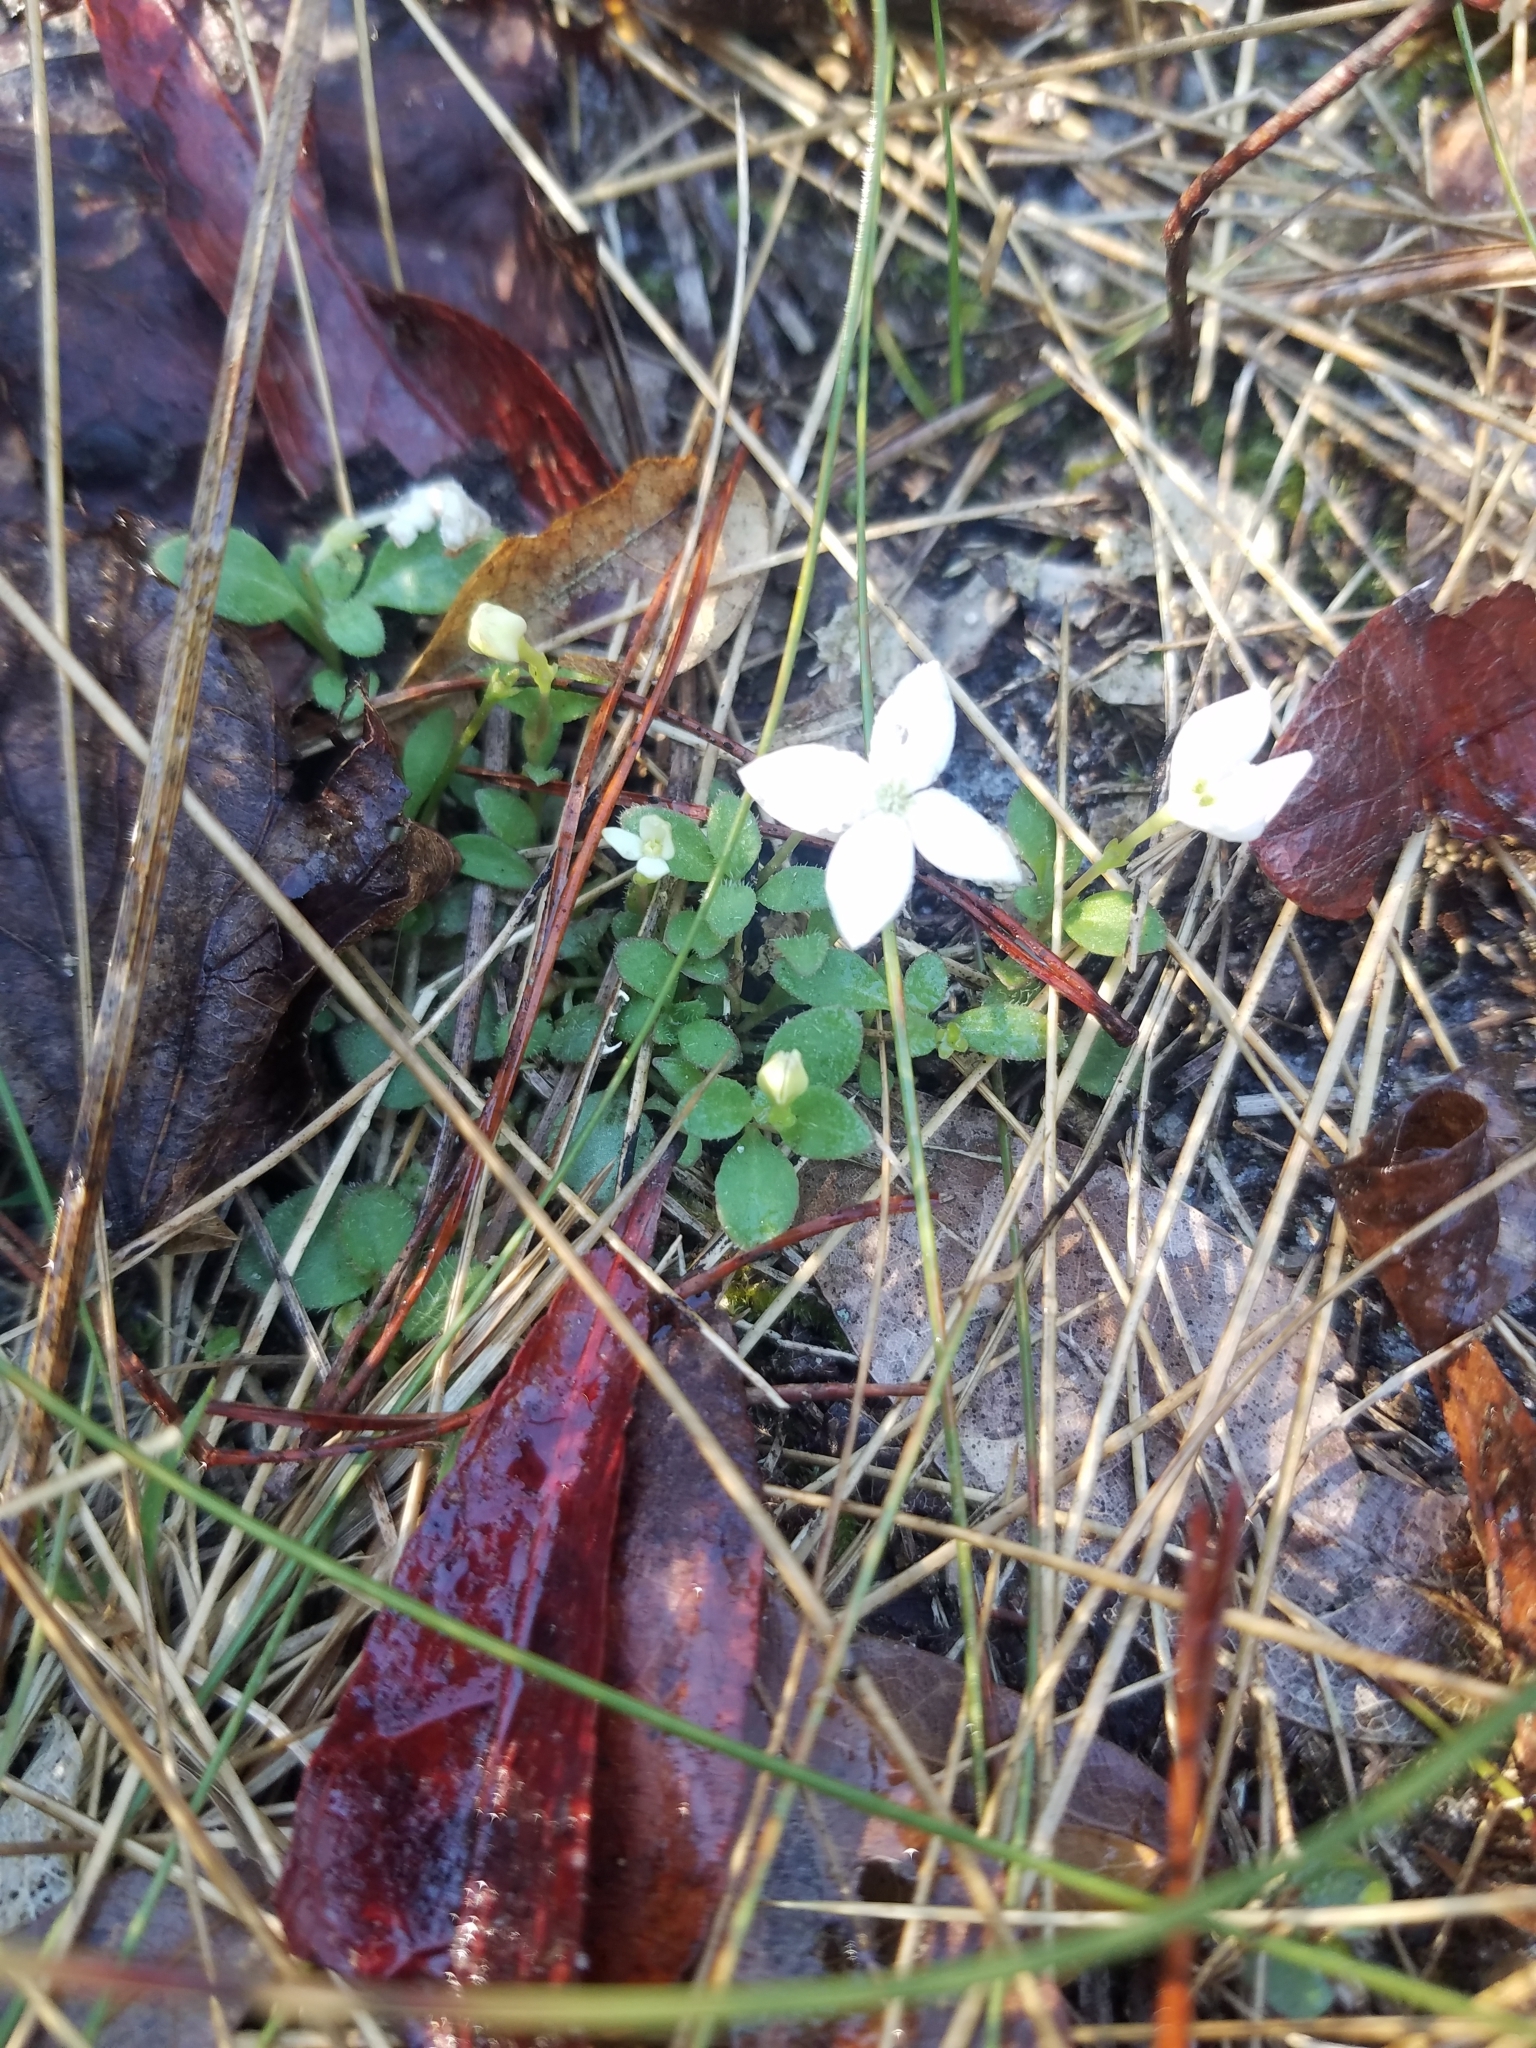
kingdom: Plantae
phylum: Tracheophyta
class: Magnoliopsida
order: Gentianales
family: Rubiaceae
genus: Houstonia
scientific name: Houstonia procumbens
